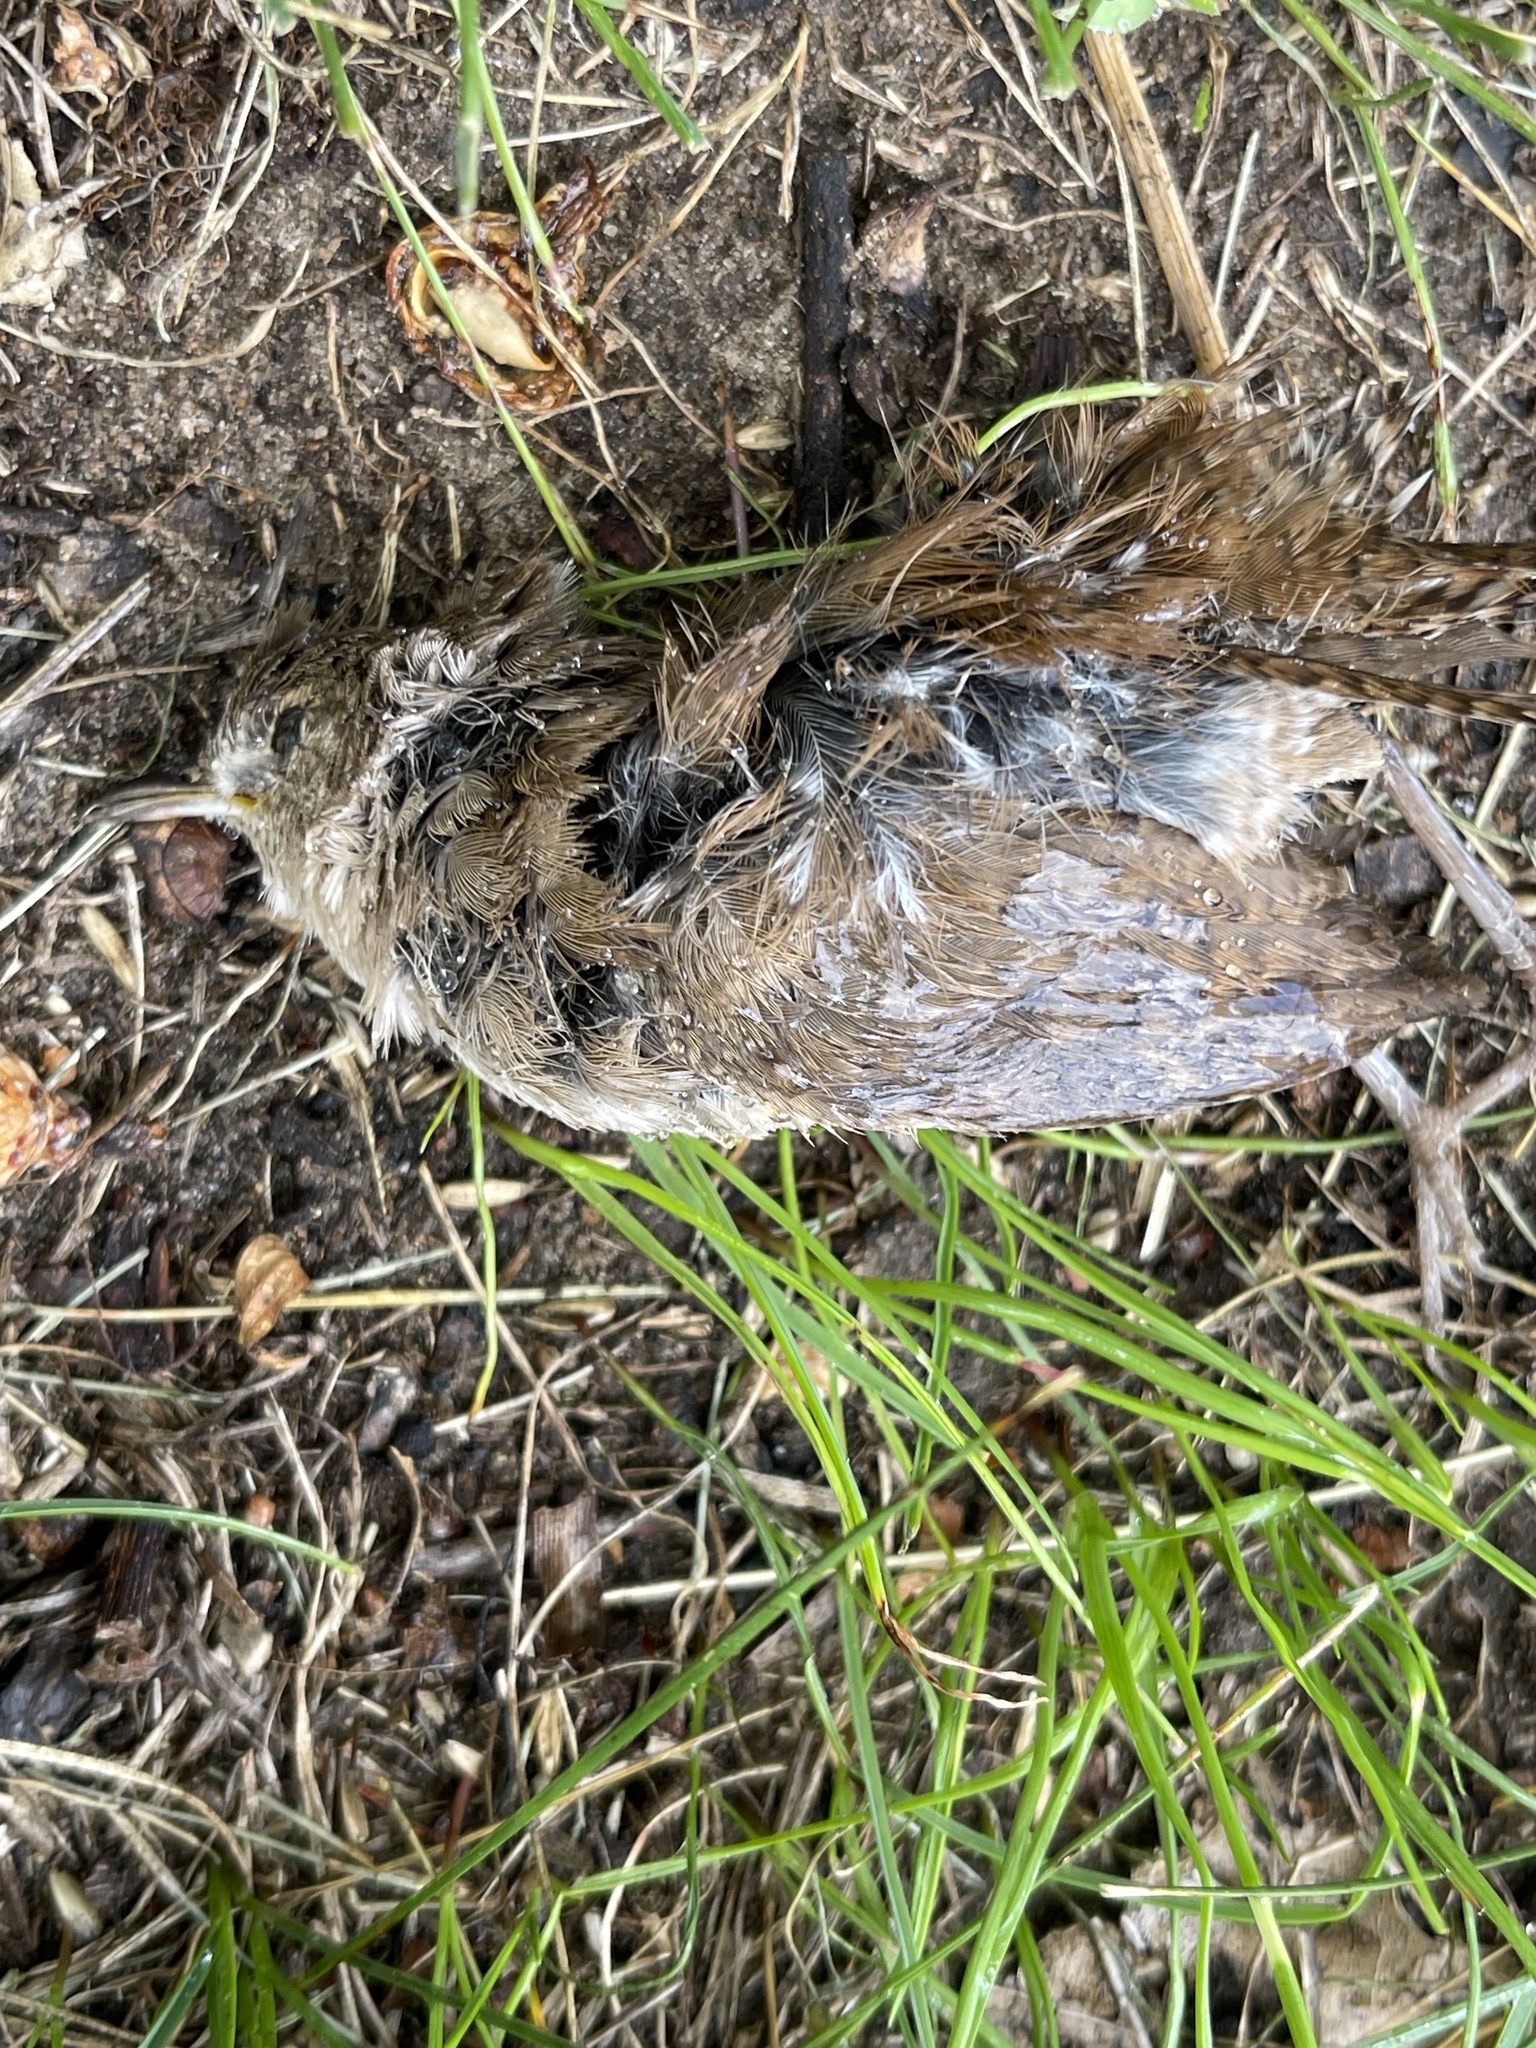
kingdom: Animalia
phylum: Chordata
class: Aves
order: Passeriformes
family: Troglodytidae
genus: Troglodytes
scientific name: Troglodytes aedon
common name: House wren
